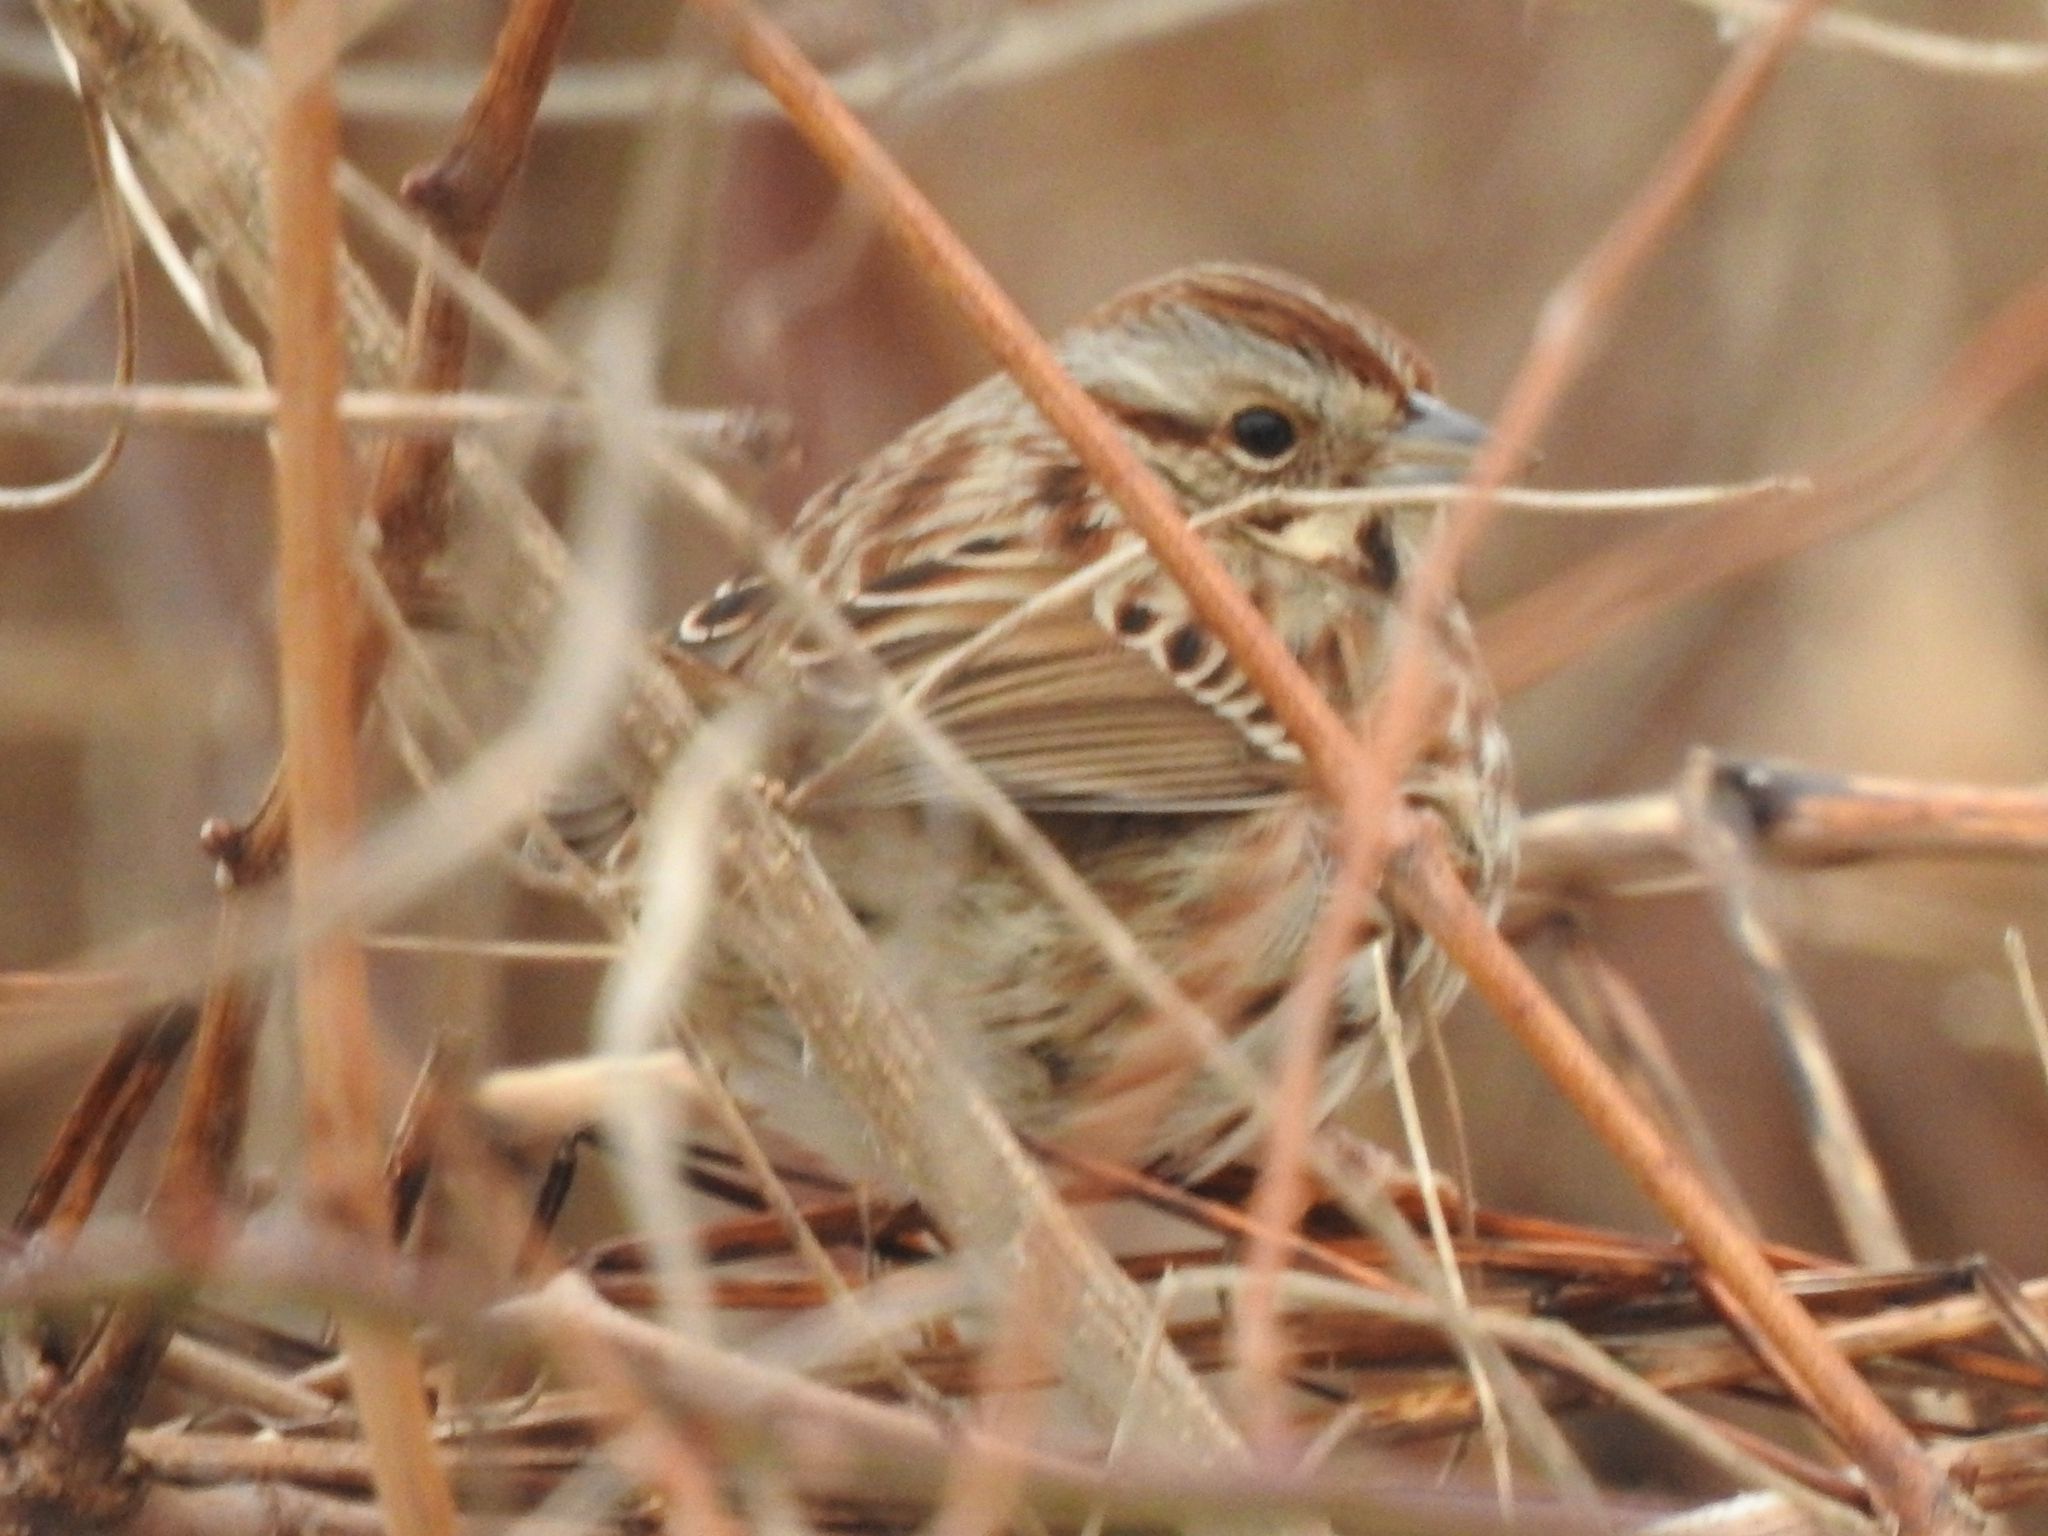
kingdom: Animalia
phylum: Chordata
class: Aves
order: Passeriformes
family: Passerellidae
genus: Melospiza
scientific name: Melospiza melodia
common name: Song sparrow
